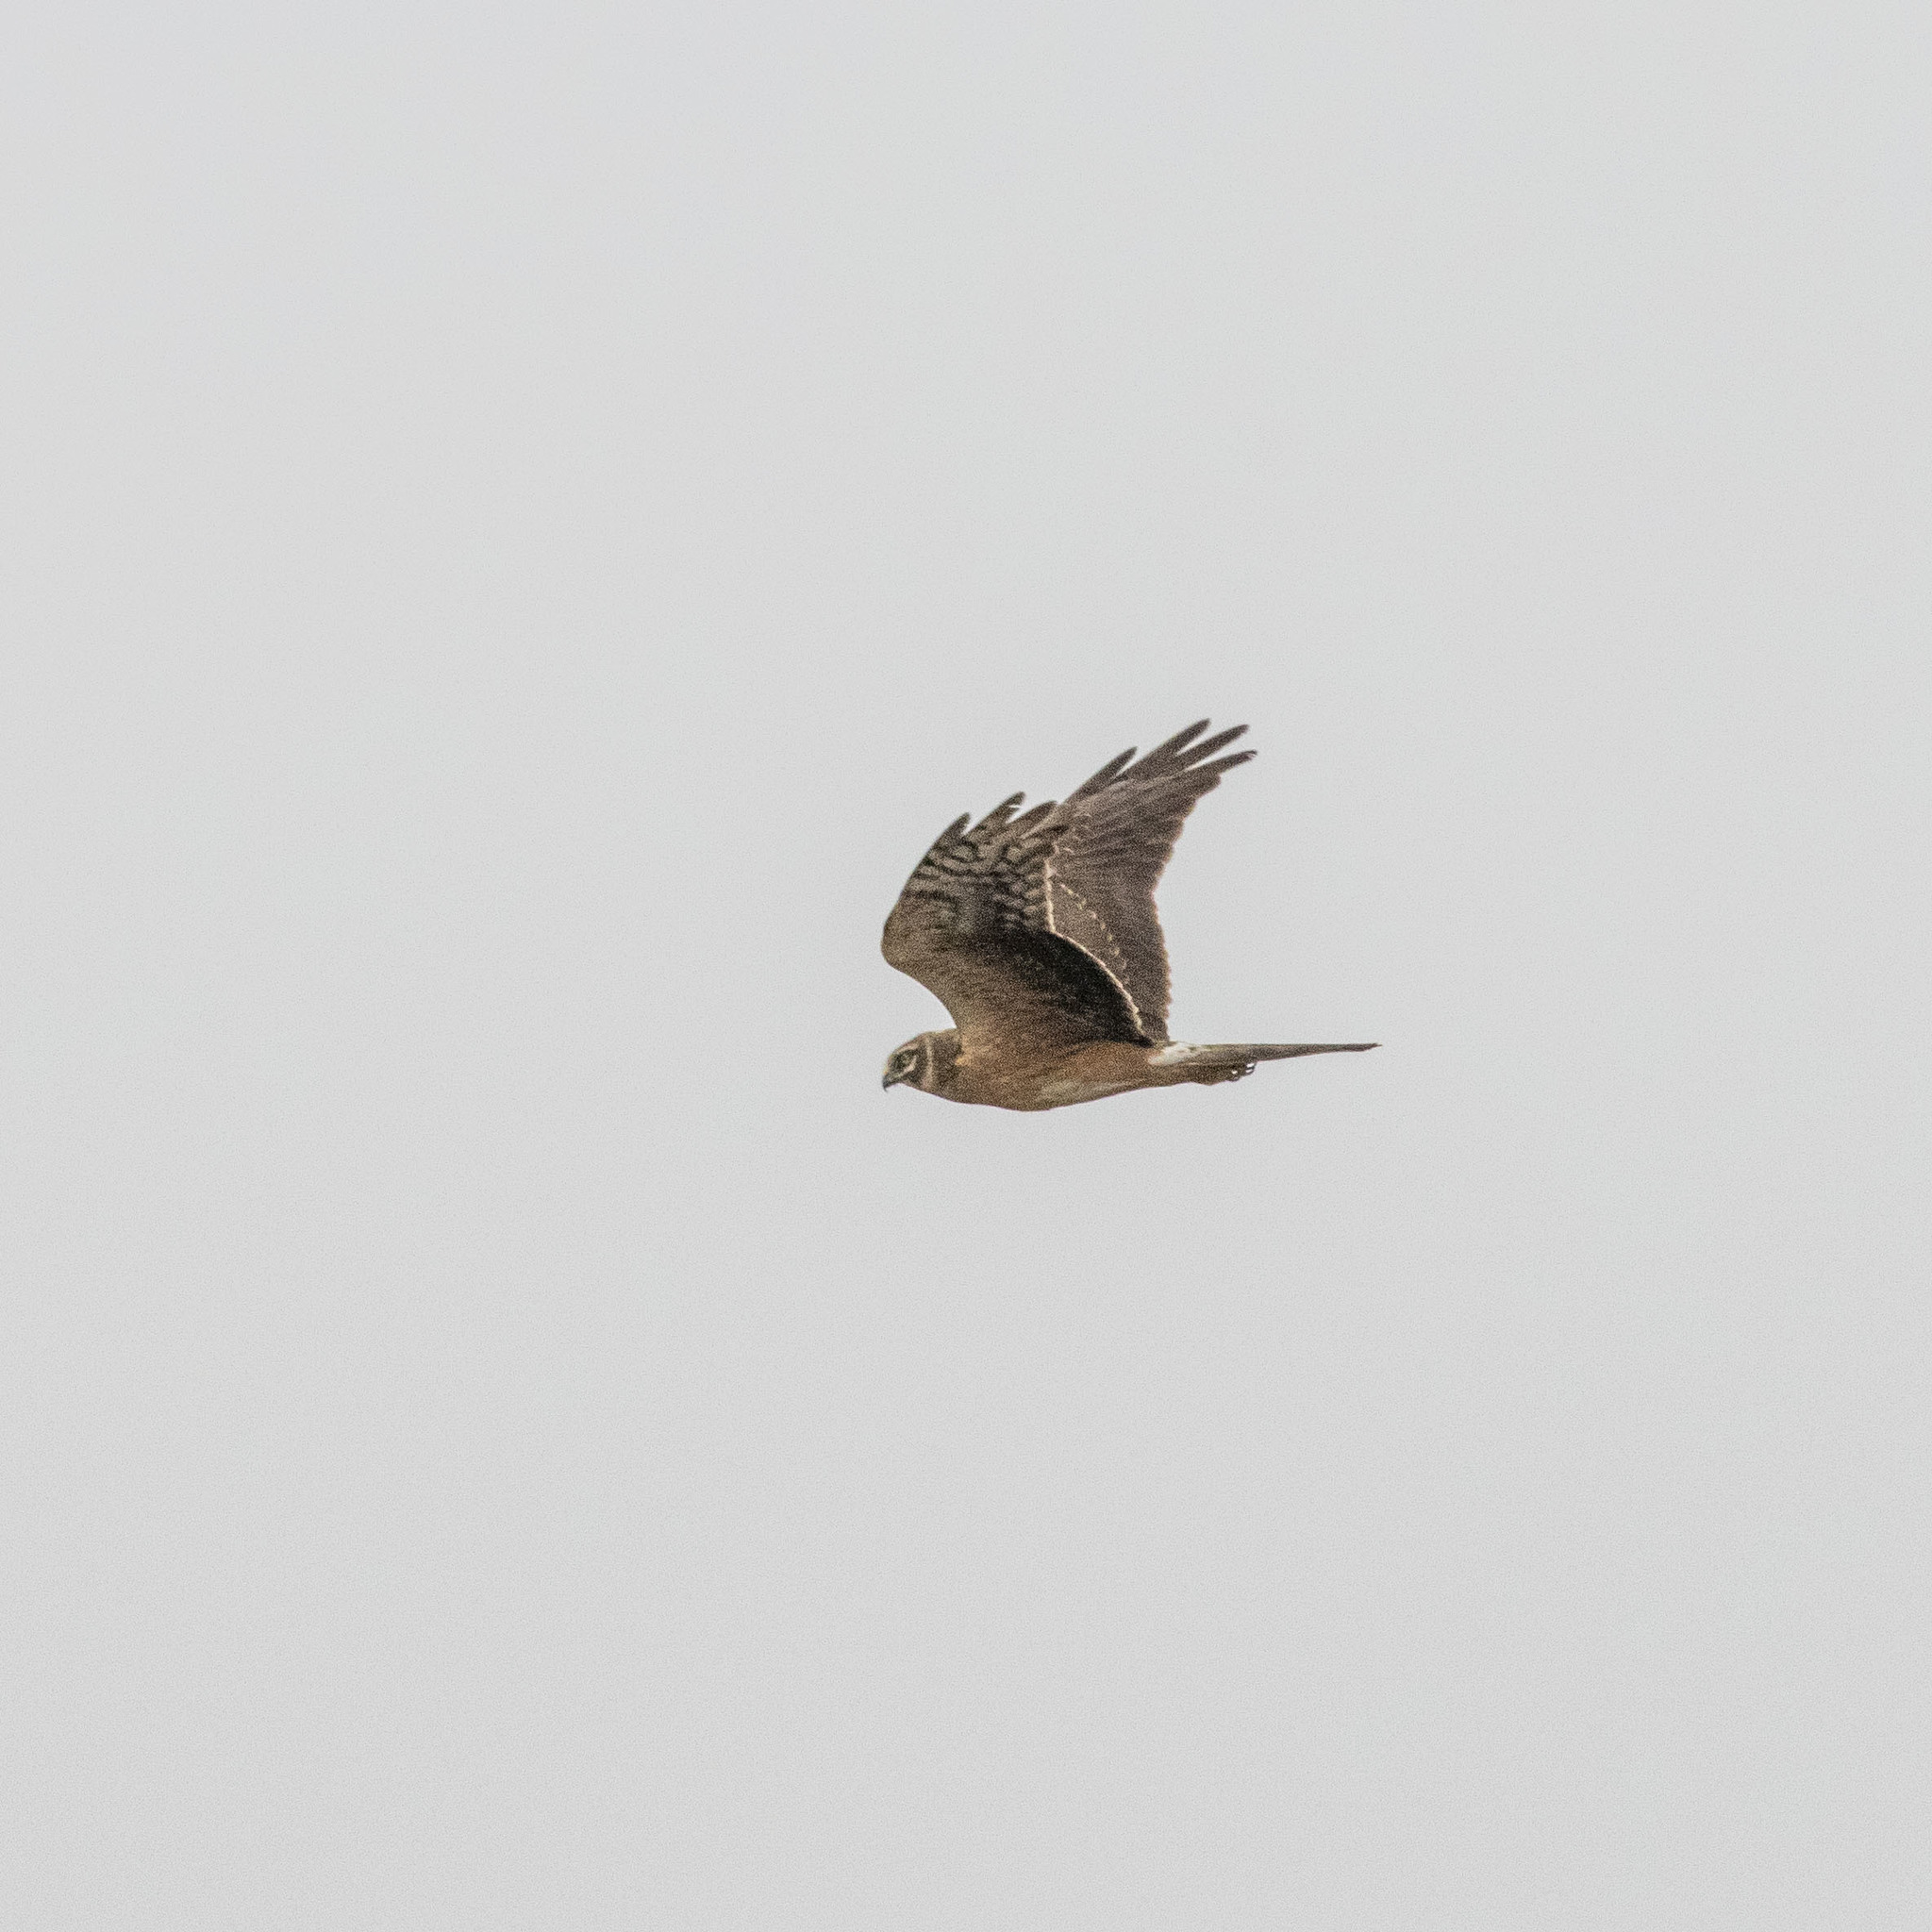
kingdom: Animalia
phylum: Chordata
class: Aves
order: Accipitriformes
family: Accipitridae
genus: Circus
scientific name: Circus aeruginosus
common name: Western marsh harrier
